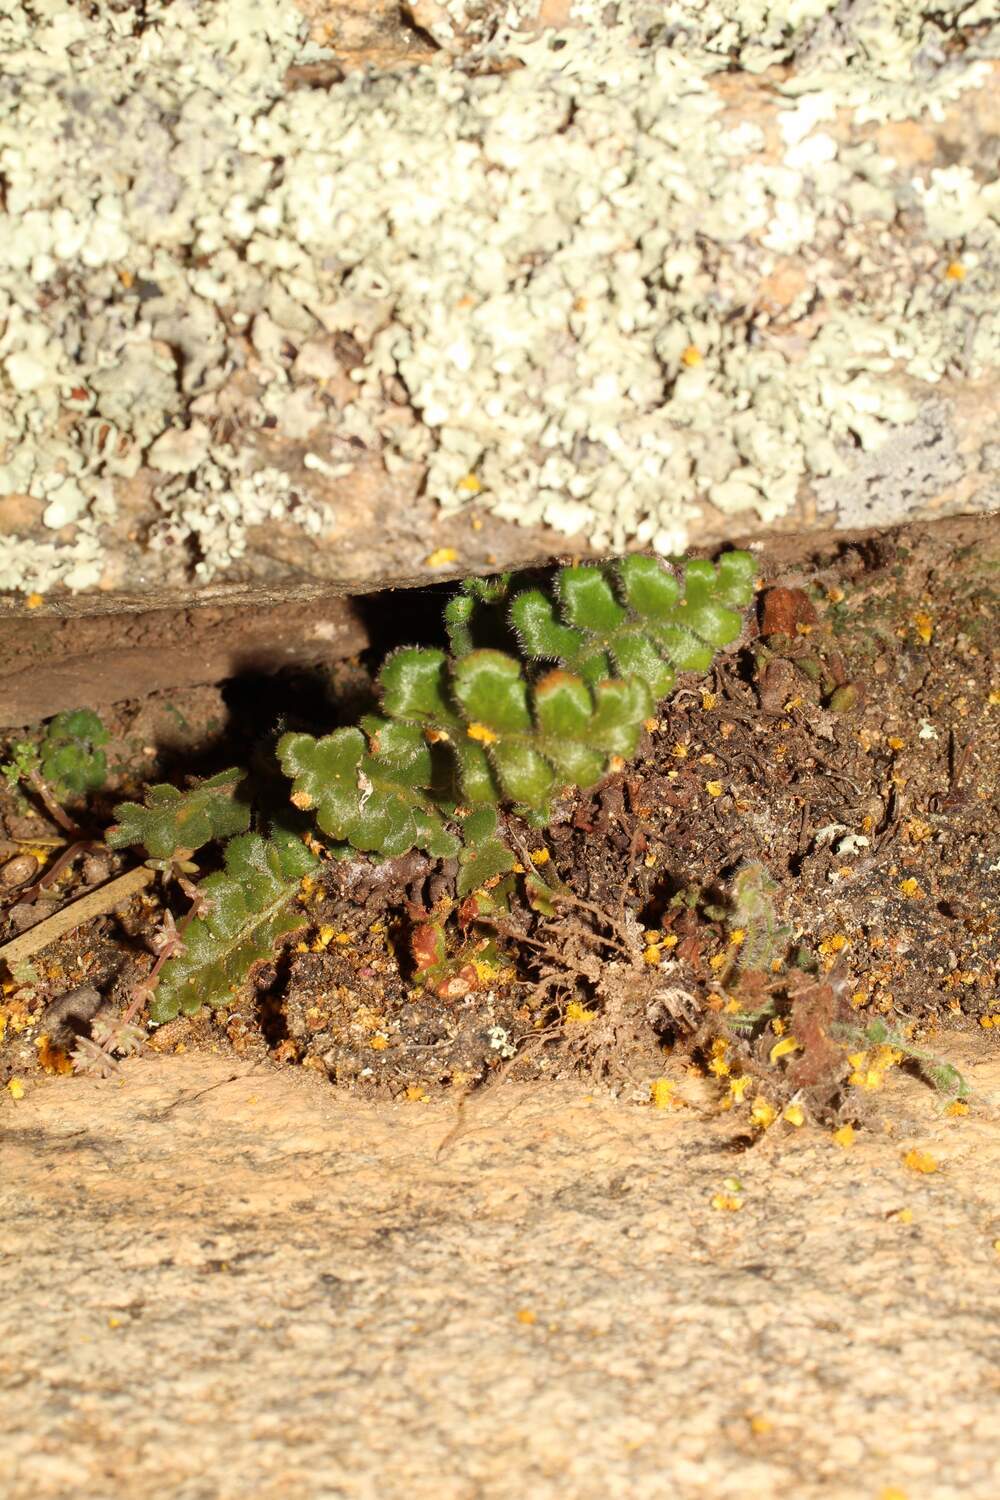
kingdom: Plantae
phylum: Tracheophyta
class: Polypodiopsida
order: Polypodiales
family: Aspleniaceae
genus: Asplenium
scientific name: Asplenium subglandulosum
